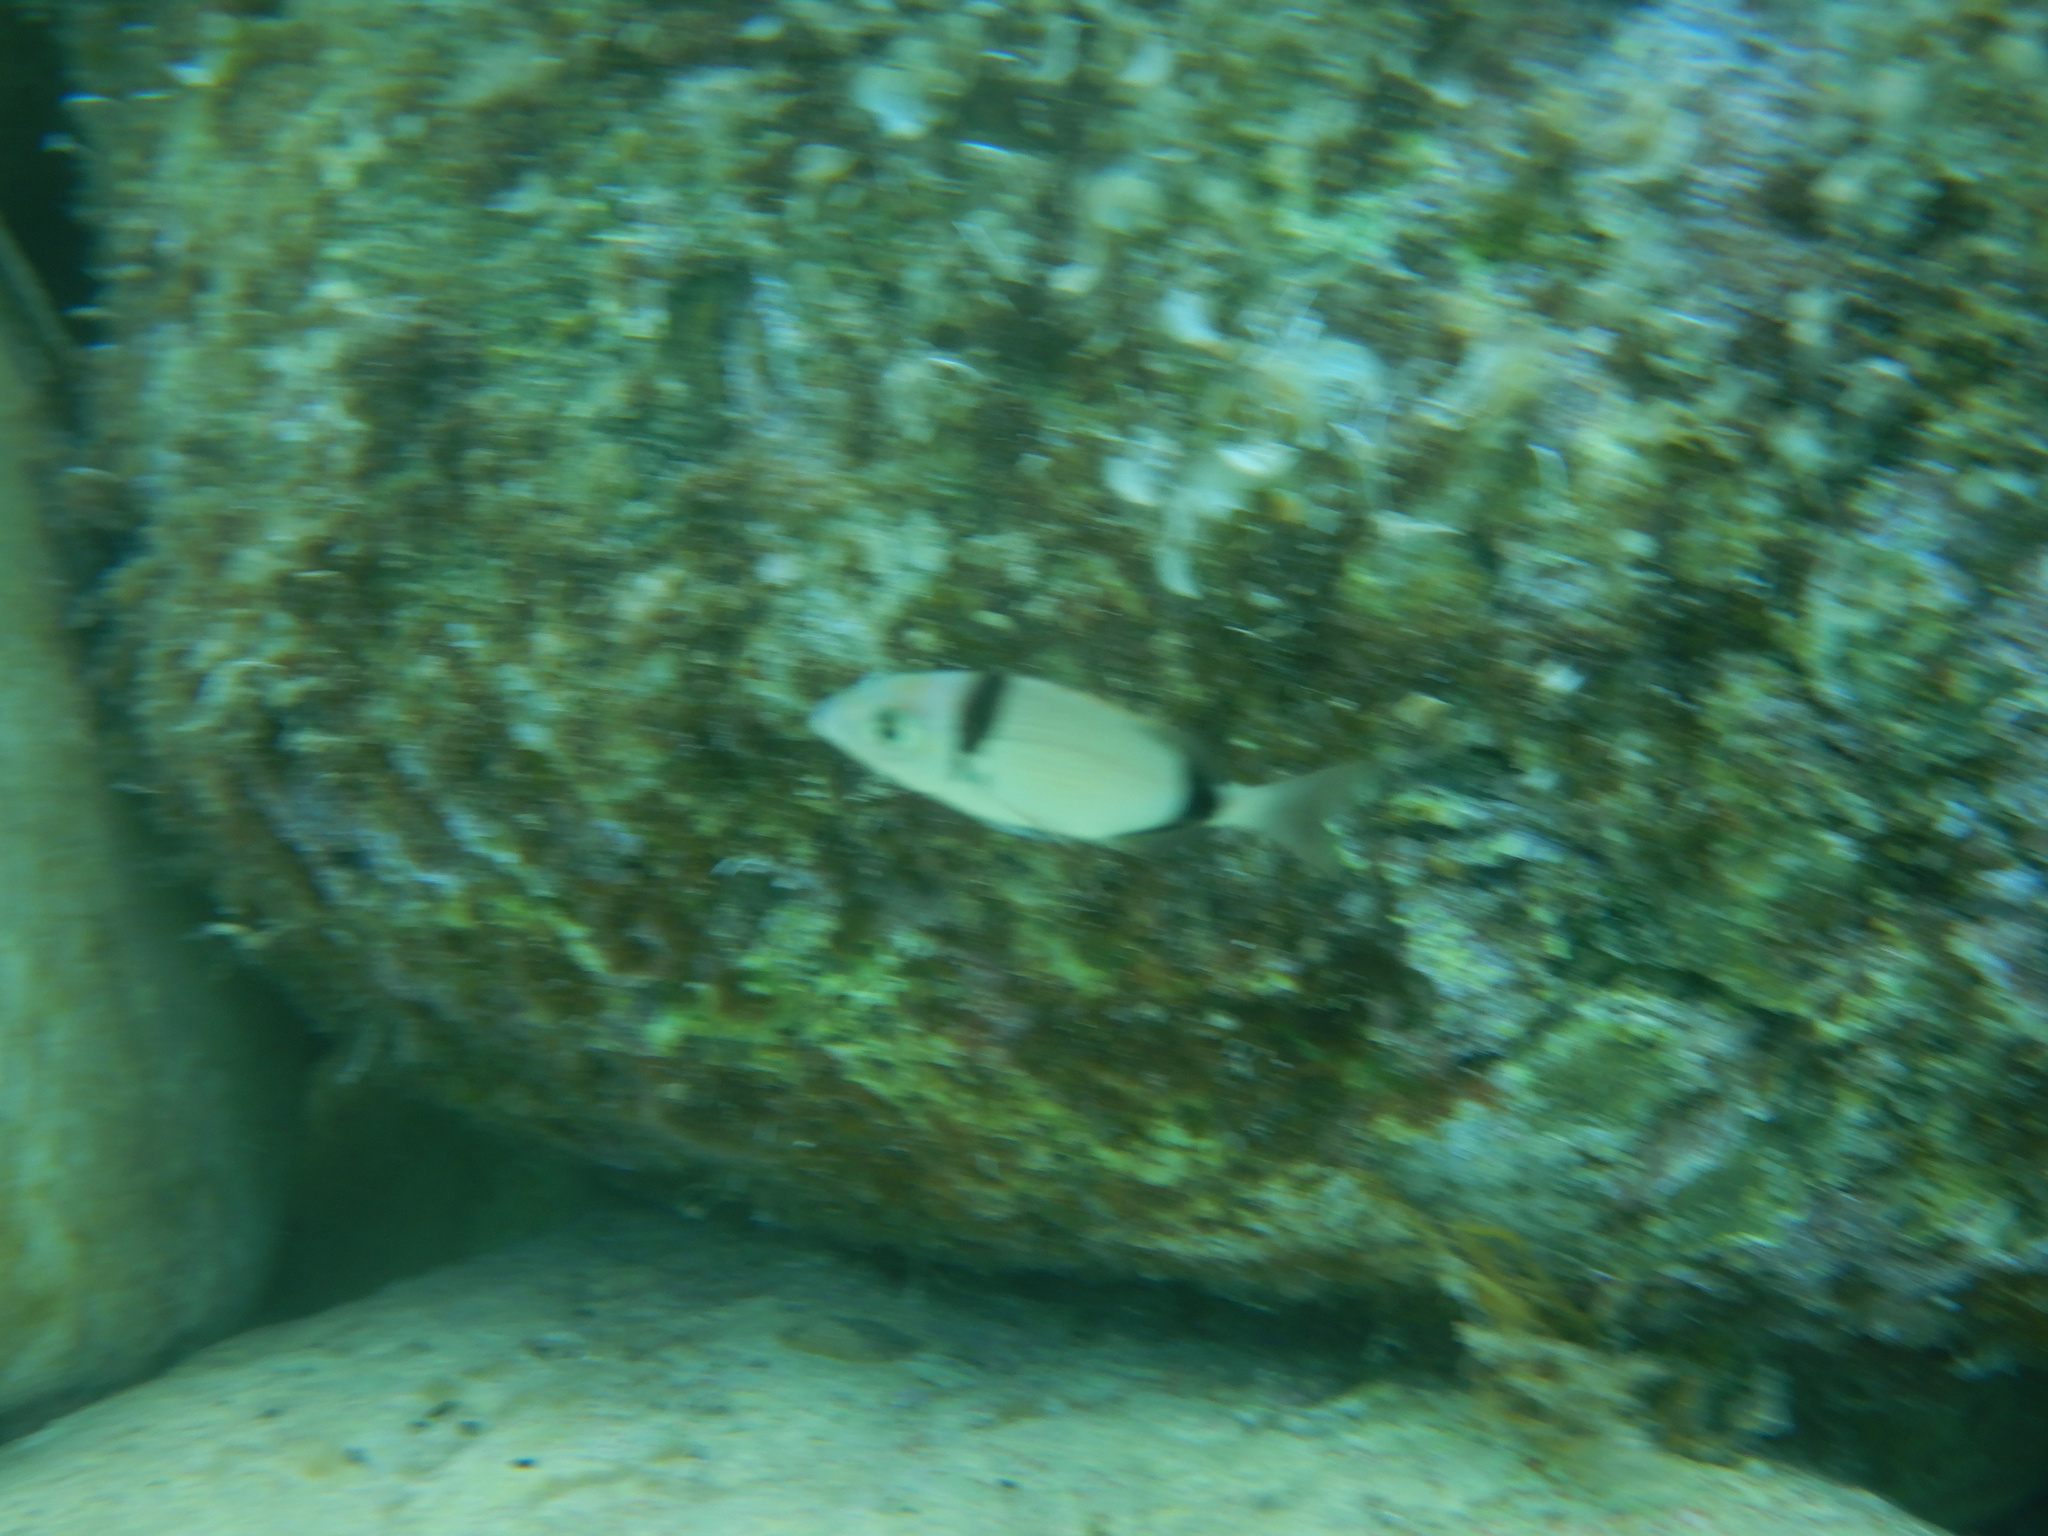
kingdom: Animalia
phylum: Chordata
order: Perciformes
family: Sparidae
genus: Diplodus
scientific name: Diplodus vulgaris
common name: Common two-banded seabream
